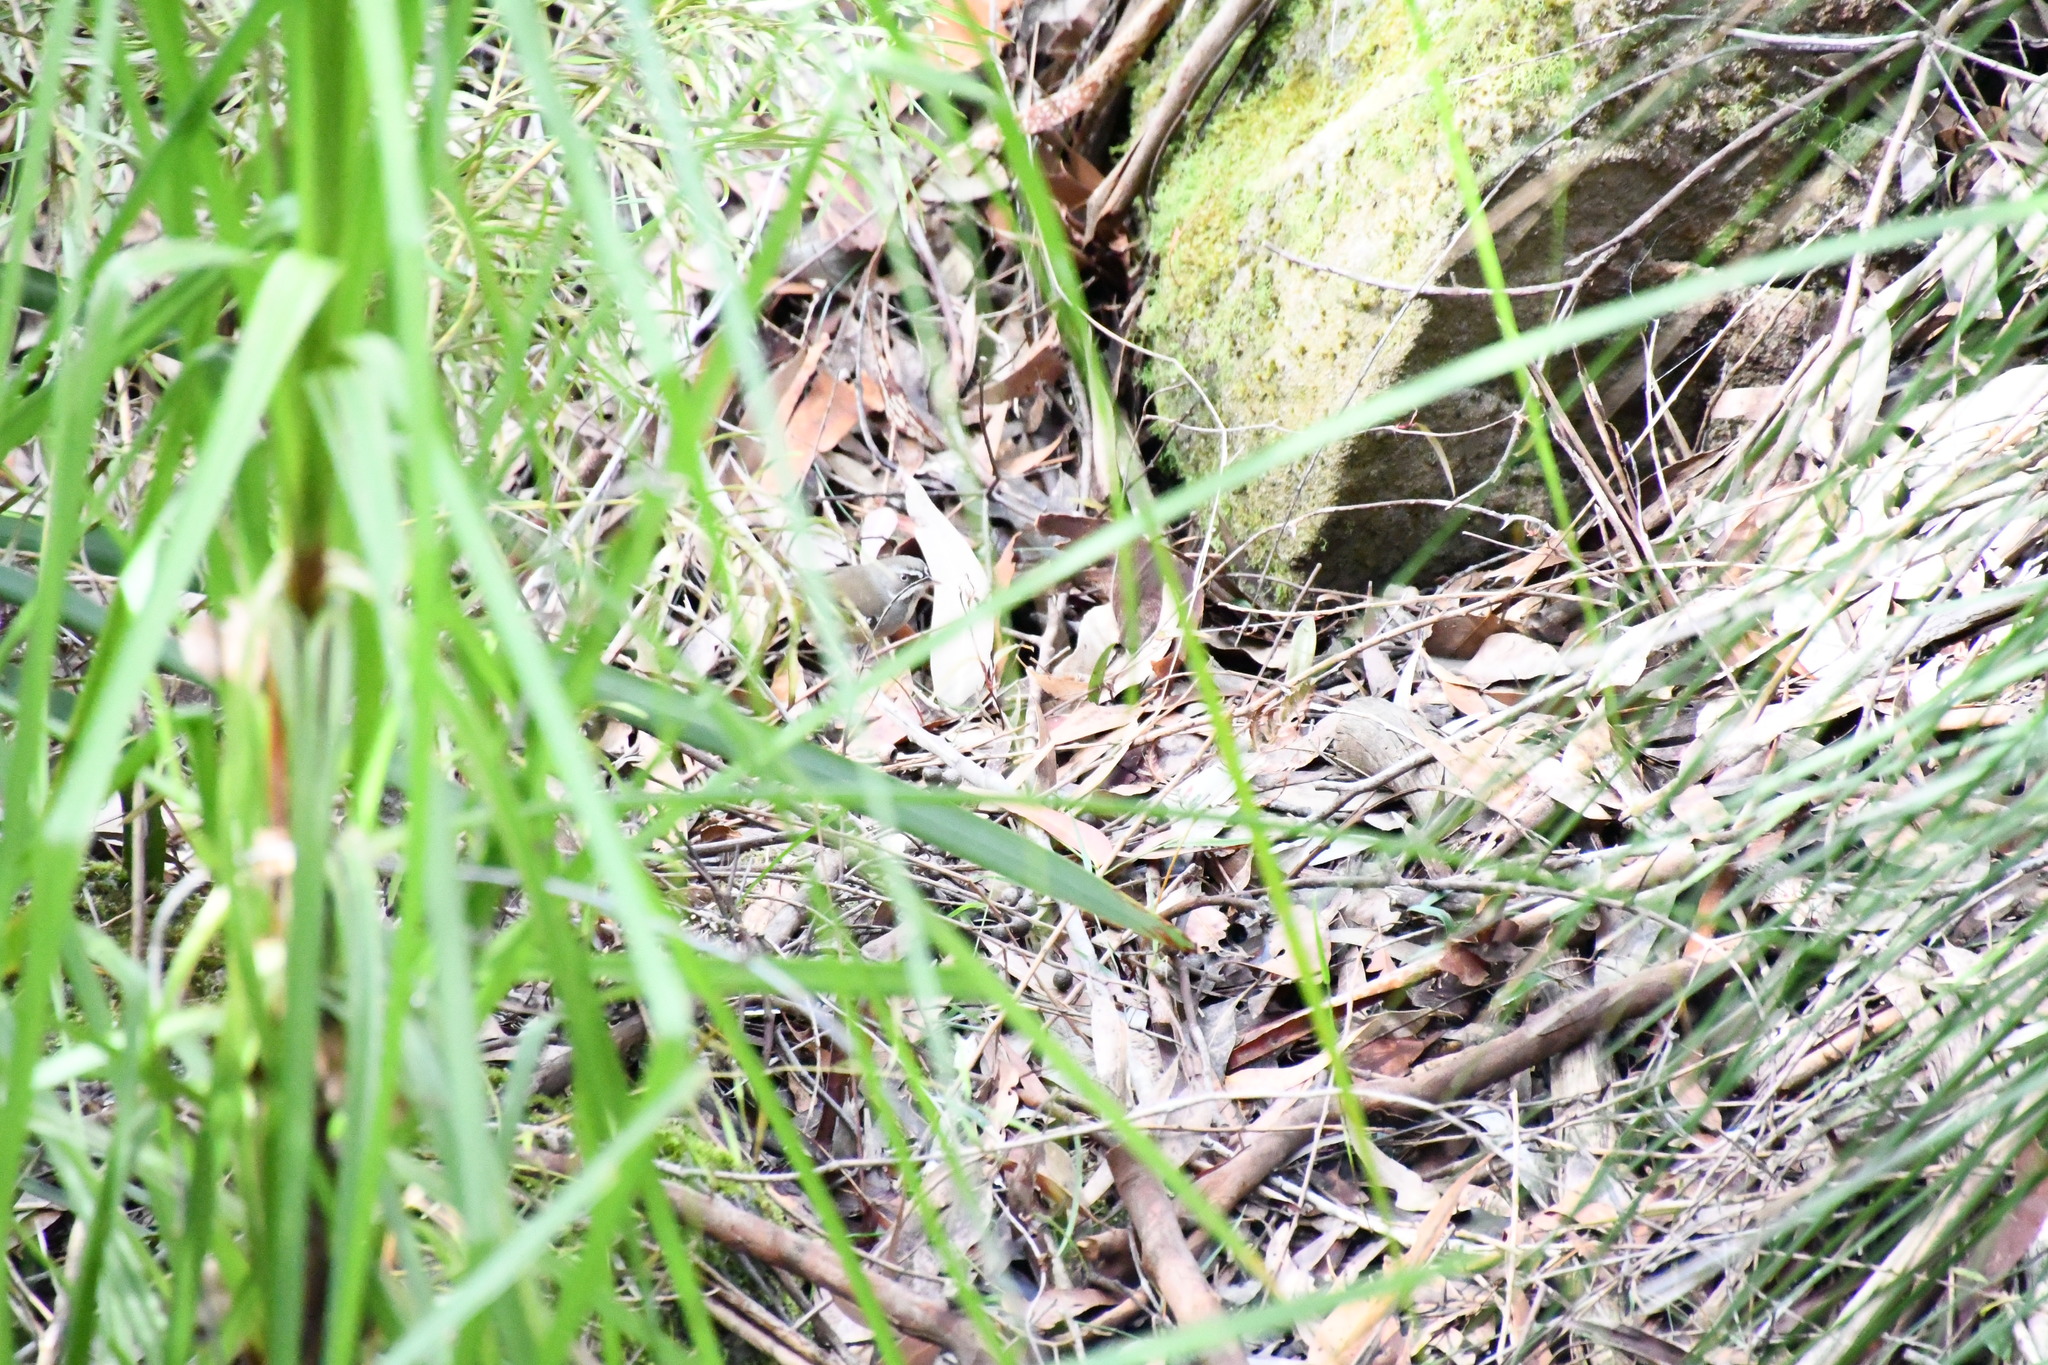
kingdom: Animalia
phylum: Chordata
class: Aves
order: Passeriformes
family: Acanthizidae
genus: Sericornis
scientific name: Sericornis frontalis
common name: White-browed scrubwren
